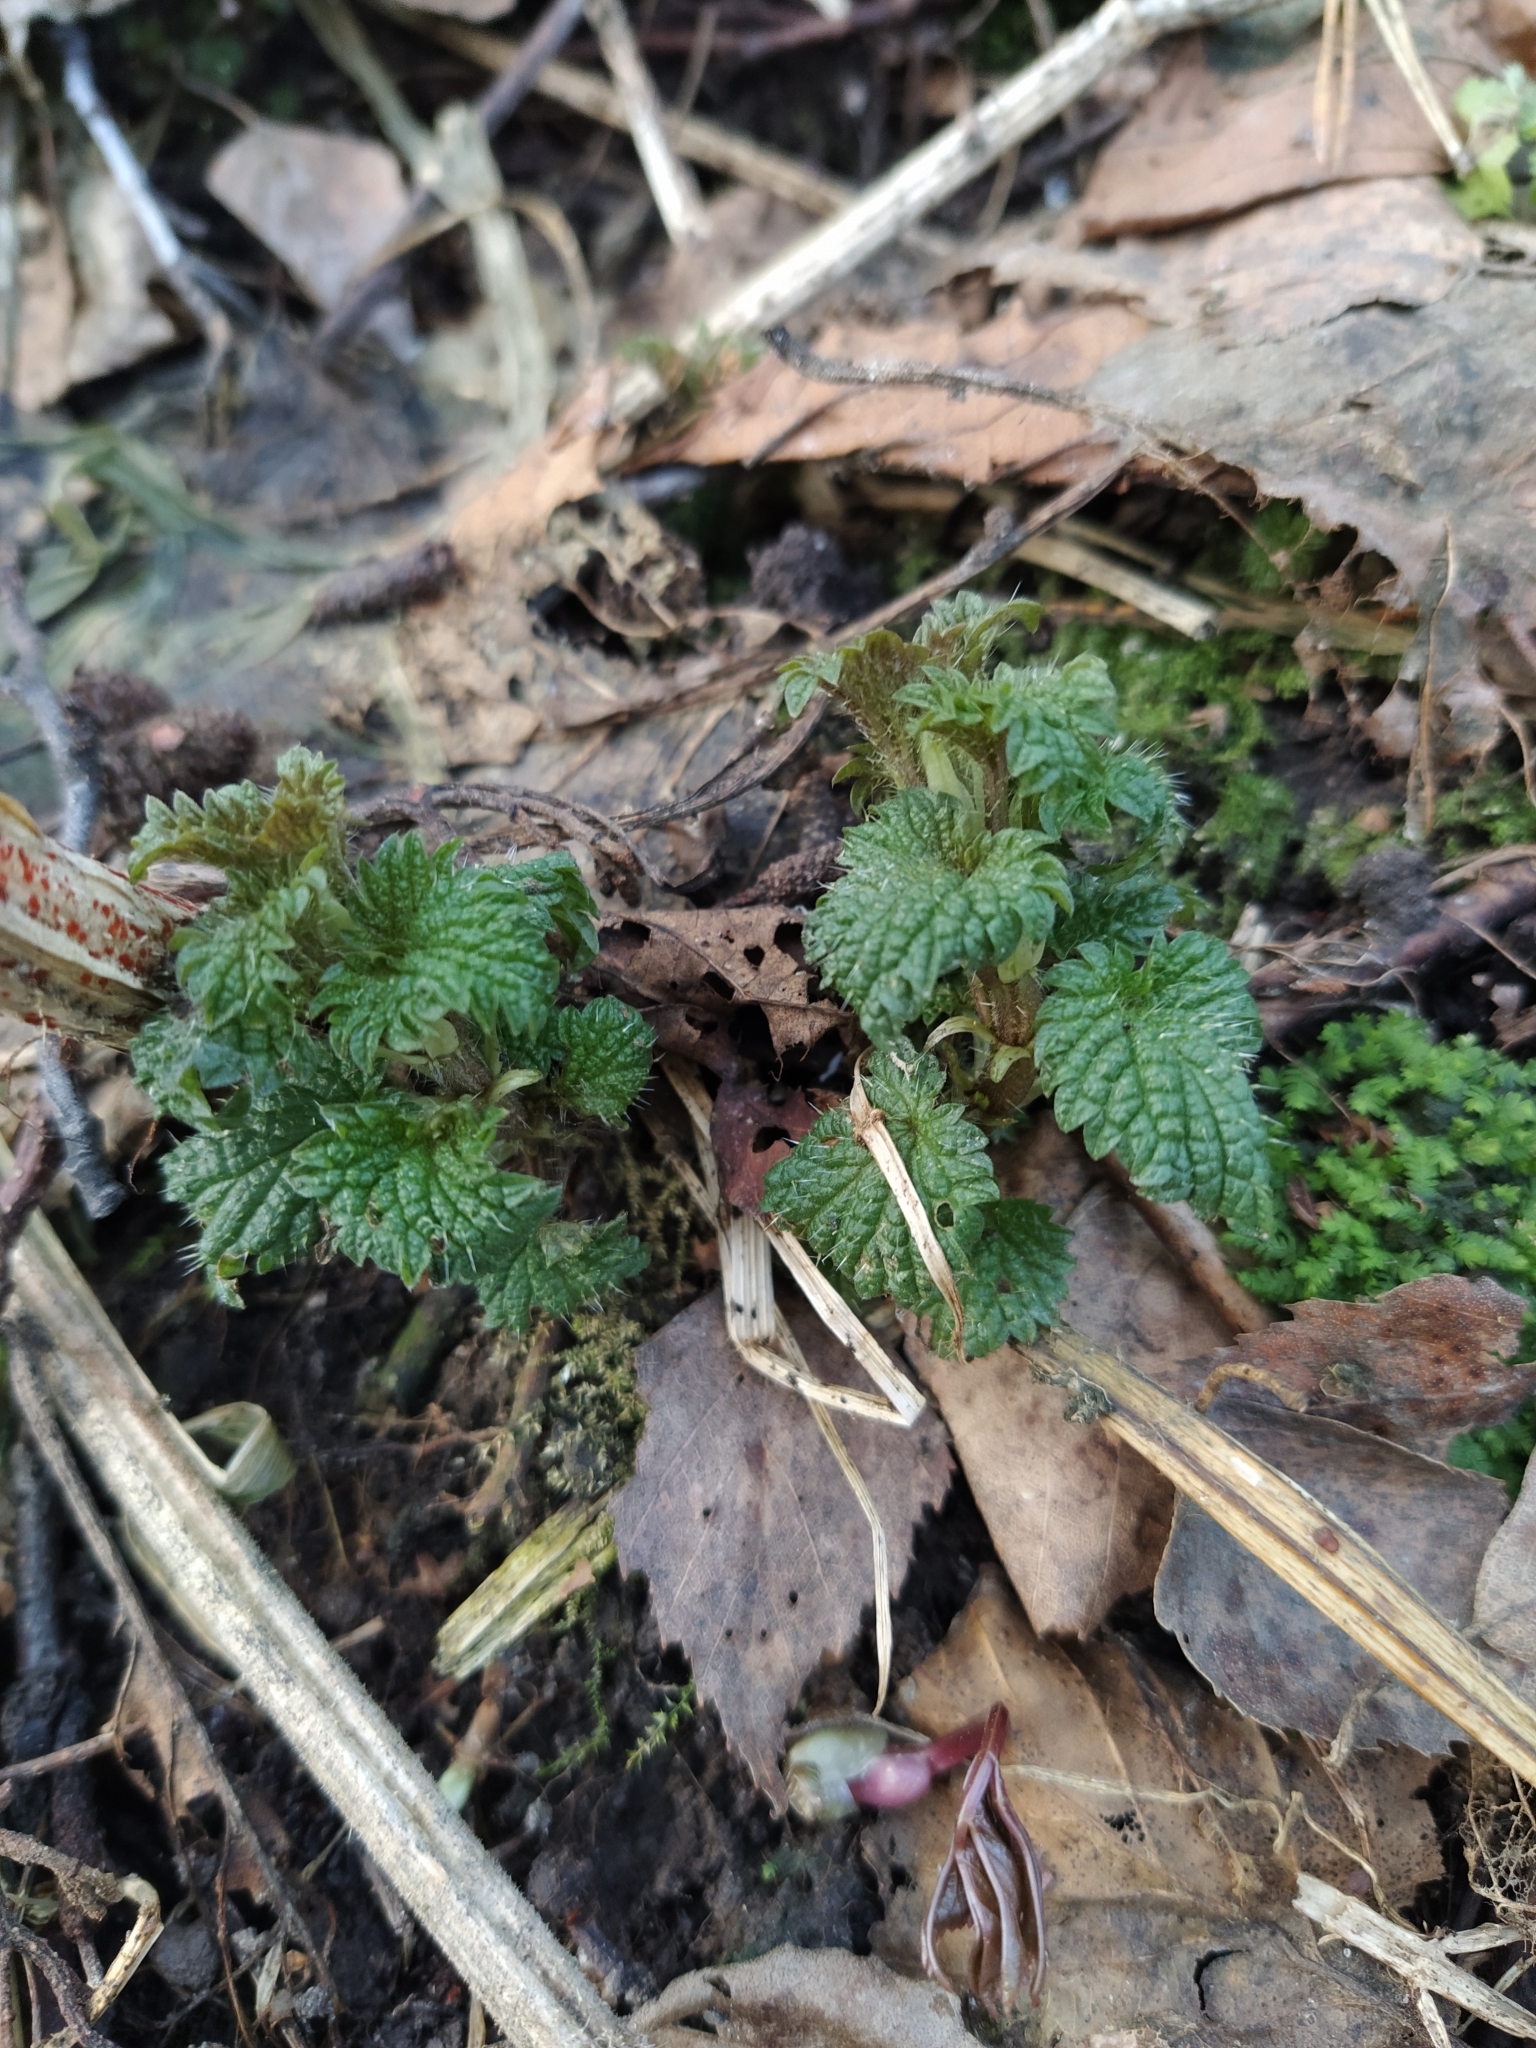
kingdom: Plantae
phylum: Tracheophyta
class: Magnoliopsida
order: Rosales
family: Urticaceae
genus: Urtica
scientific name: Urtica dioica
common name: Common nettle
